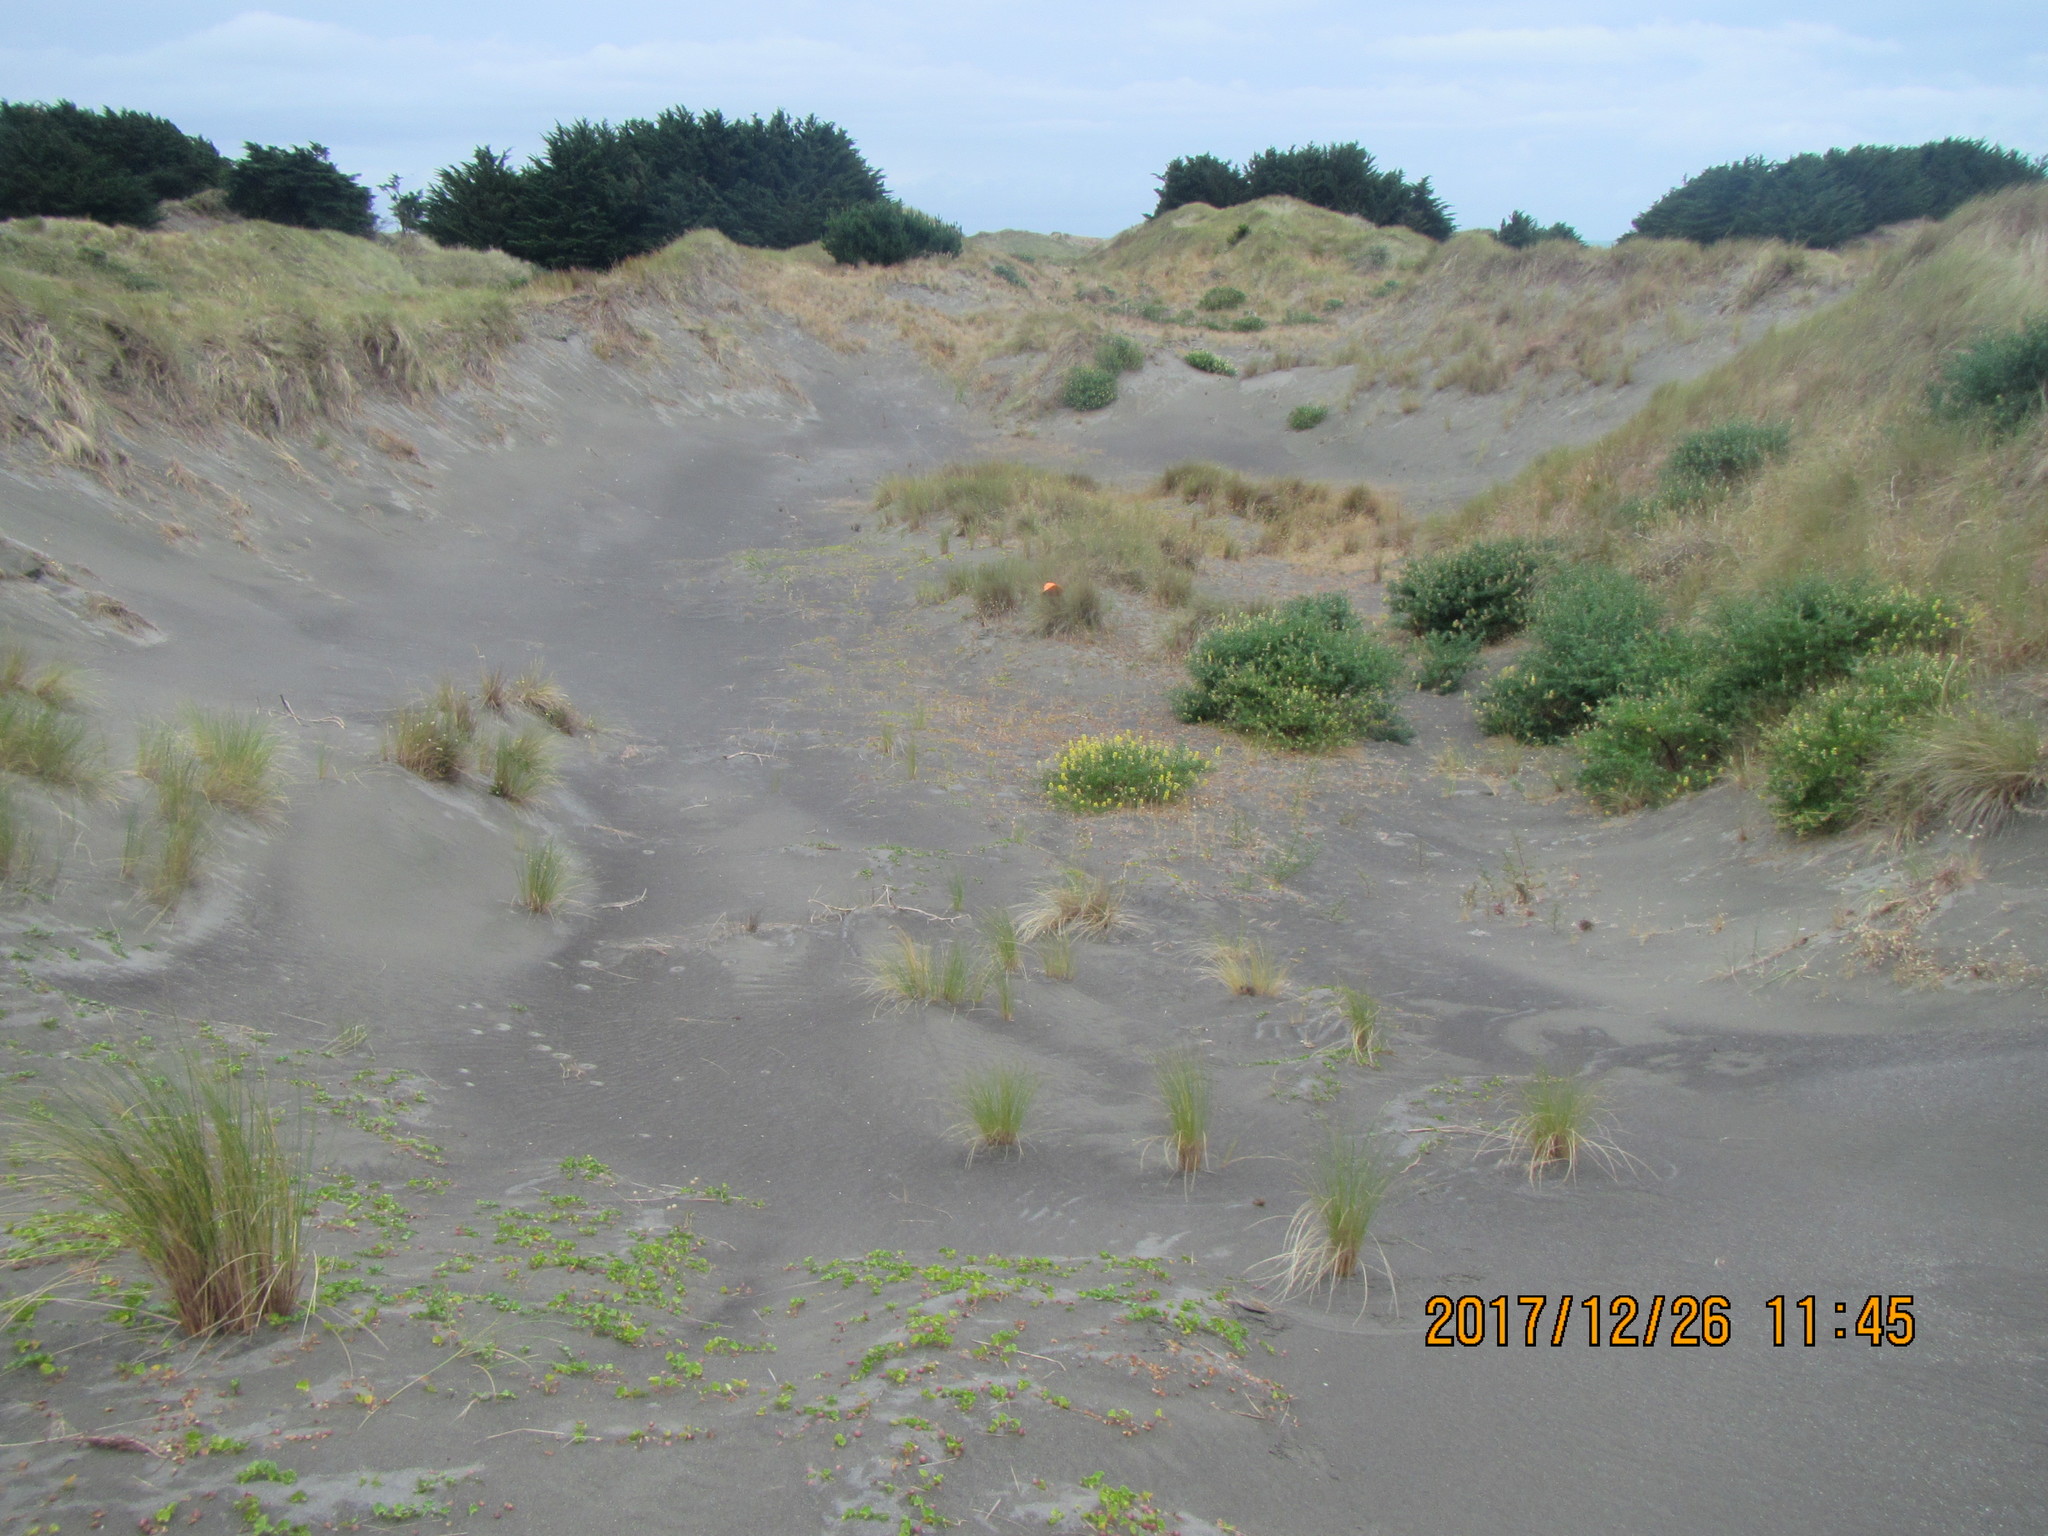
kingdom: Plantae
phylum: Tracheophyta
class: Magnoliopsida
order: Fabales
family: Fabaceae
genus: Lupinus
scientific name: Lupinus arboreus
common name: Yellow bush lupine
